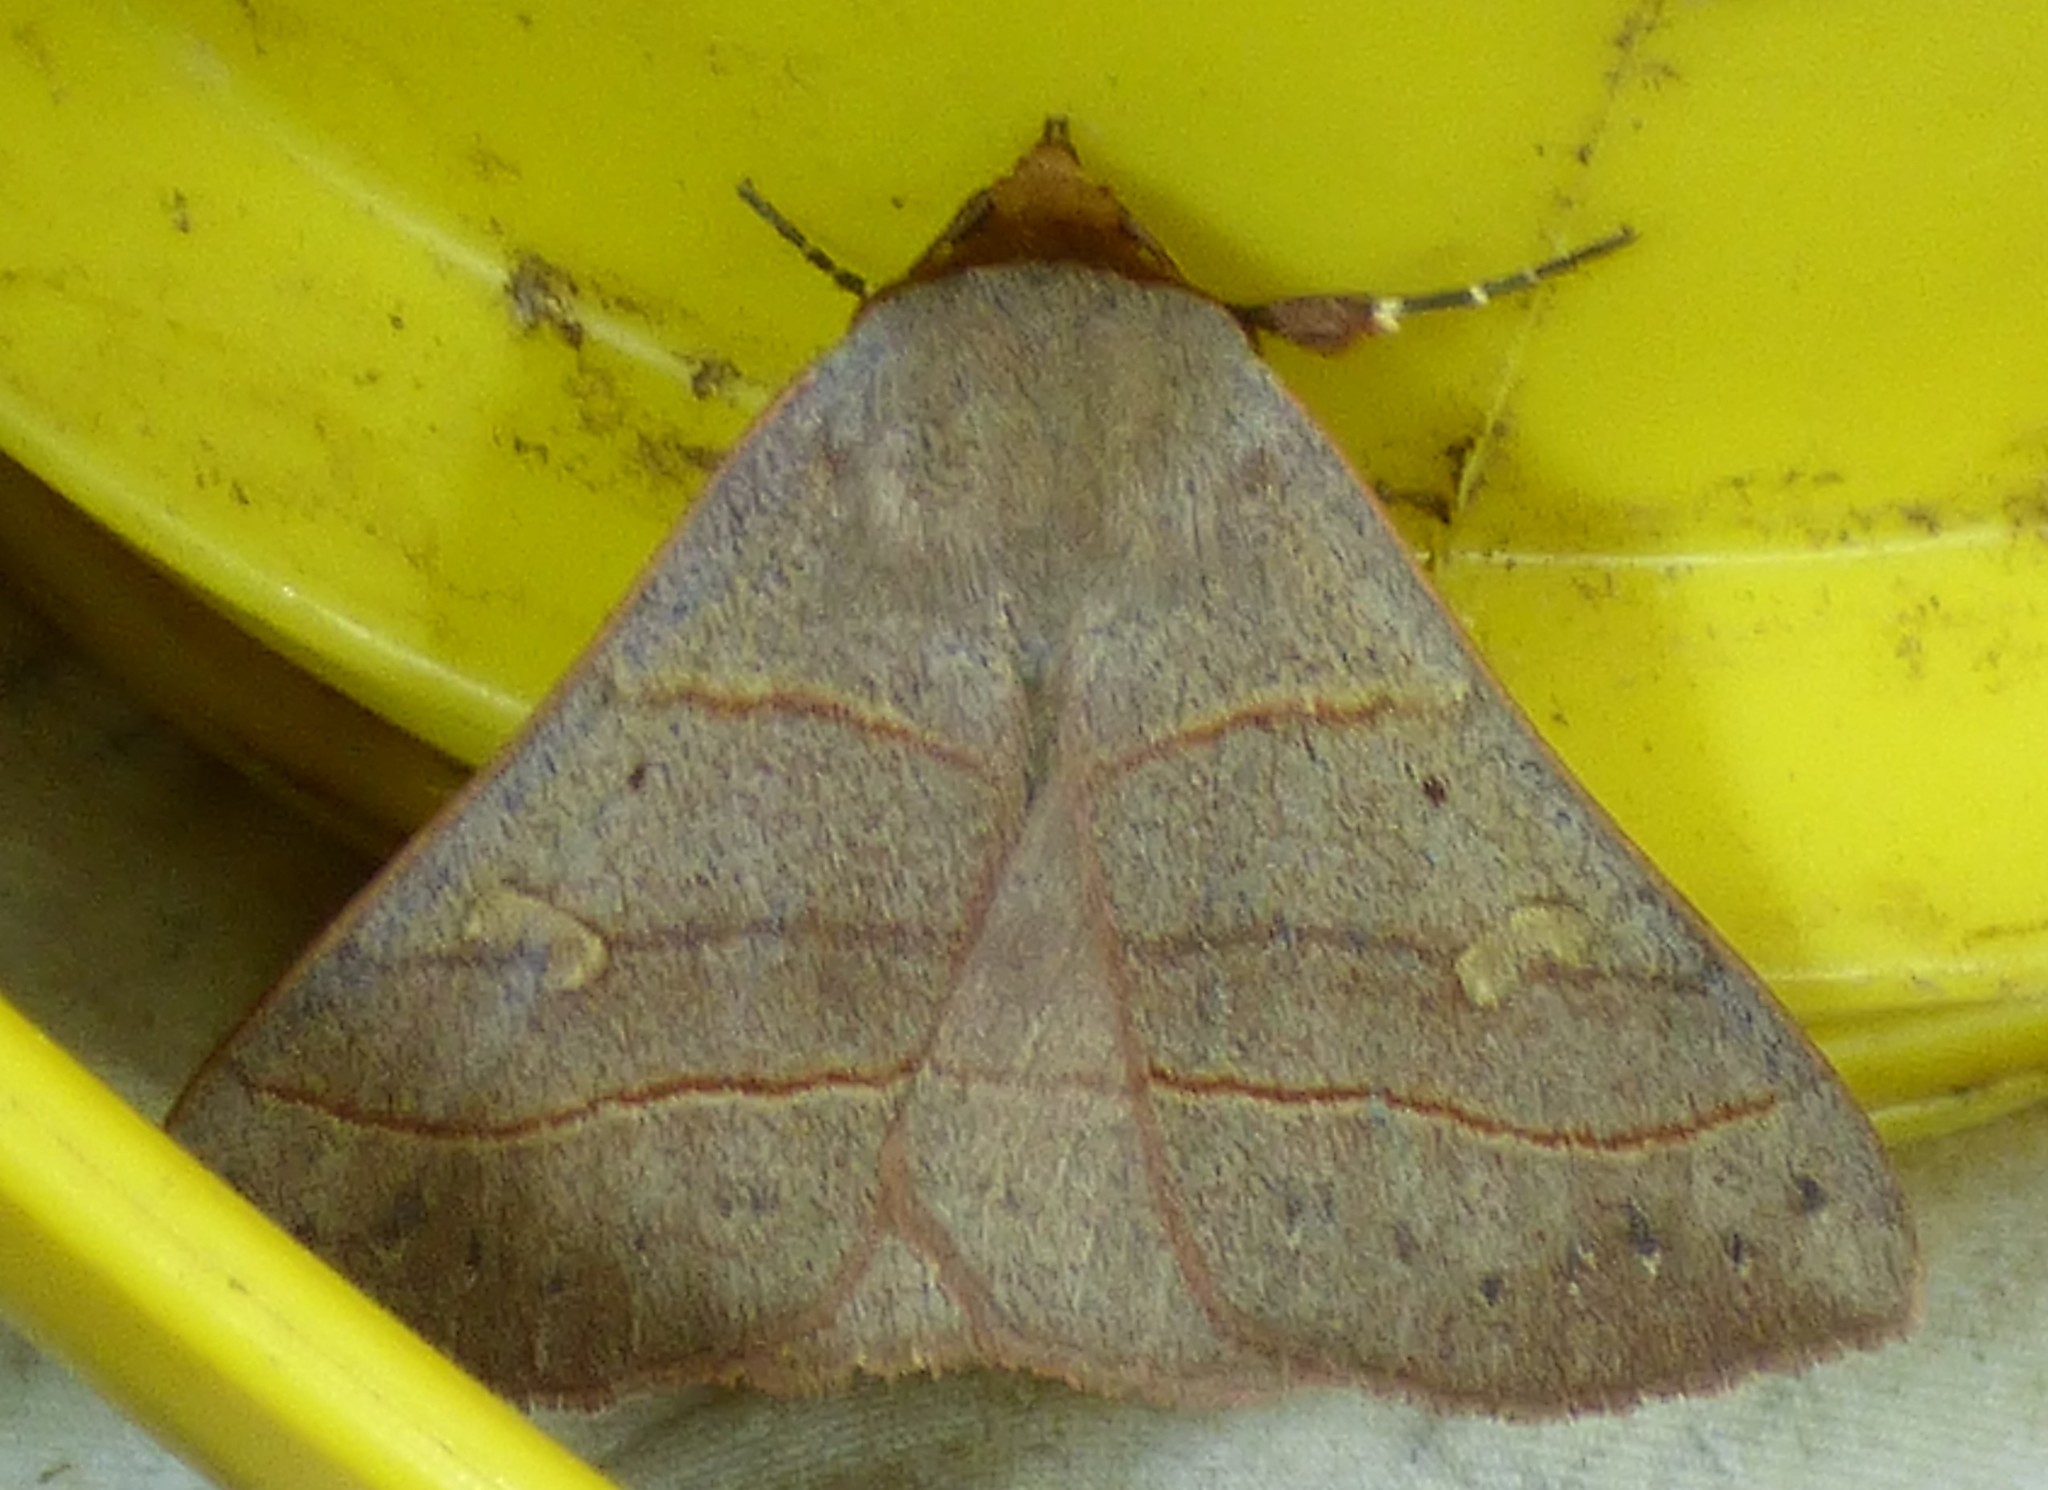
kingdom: Animalia
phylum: Arthropoda
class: Insecta
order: Lepidoptera
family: Erebidae
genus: Panopoda
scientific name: Panopoda rufimargo
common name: Red-lined panopoda moth
